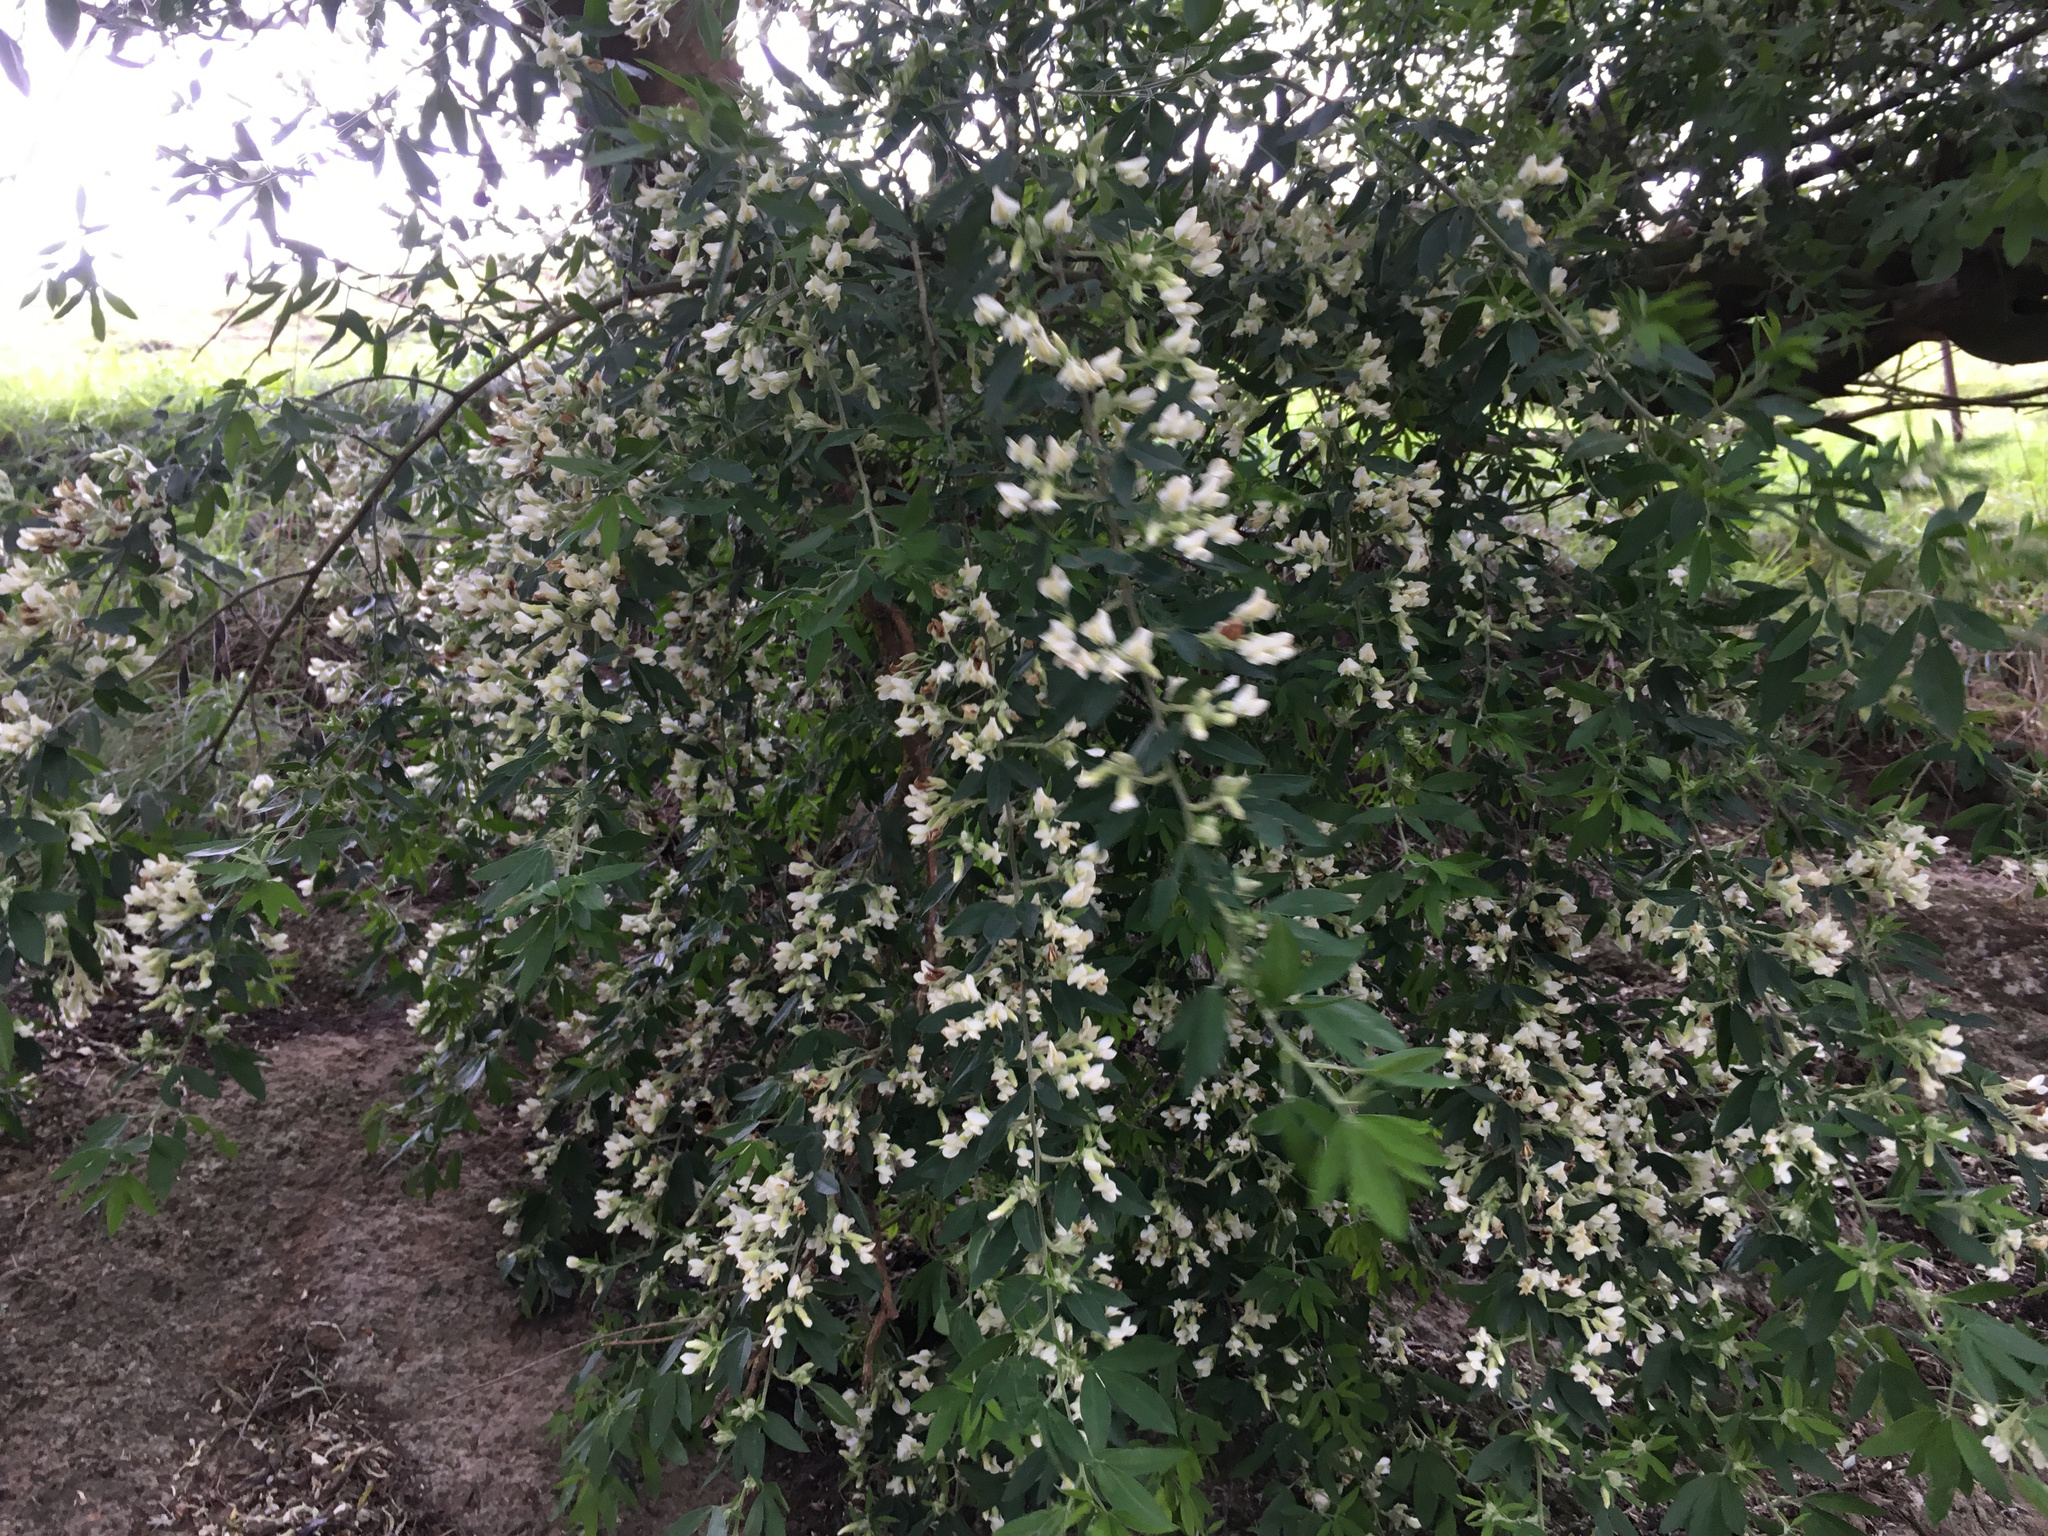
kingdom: Plantae
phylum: Tracheophyta
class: Magnoliopsida
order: Fabales
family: Fabaceae
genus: Chamaecytisus
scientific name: Chamaecytisus prolifer
